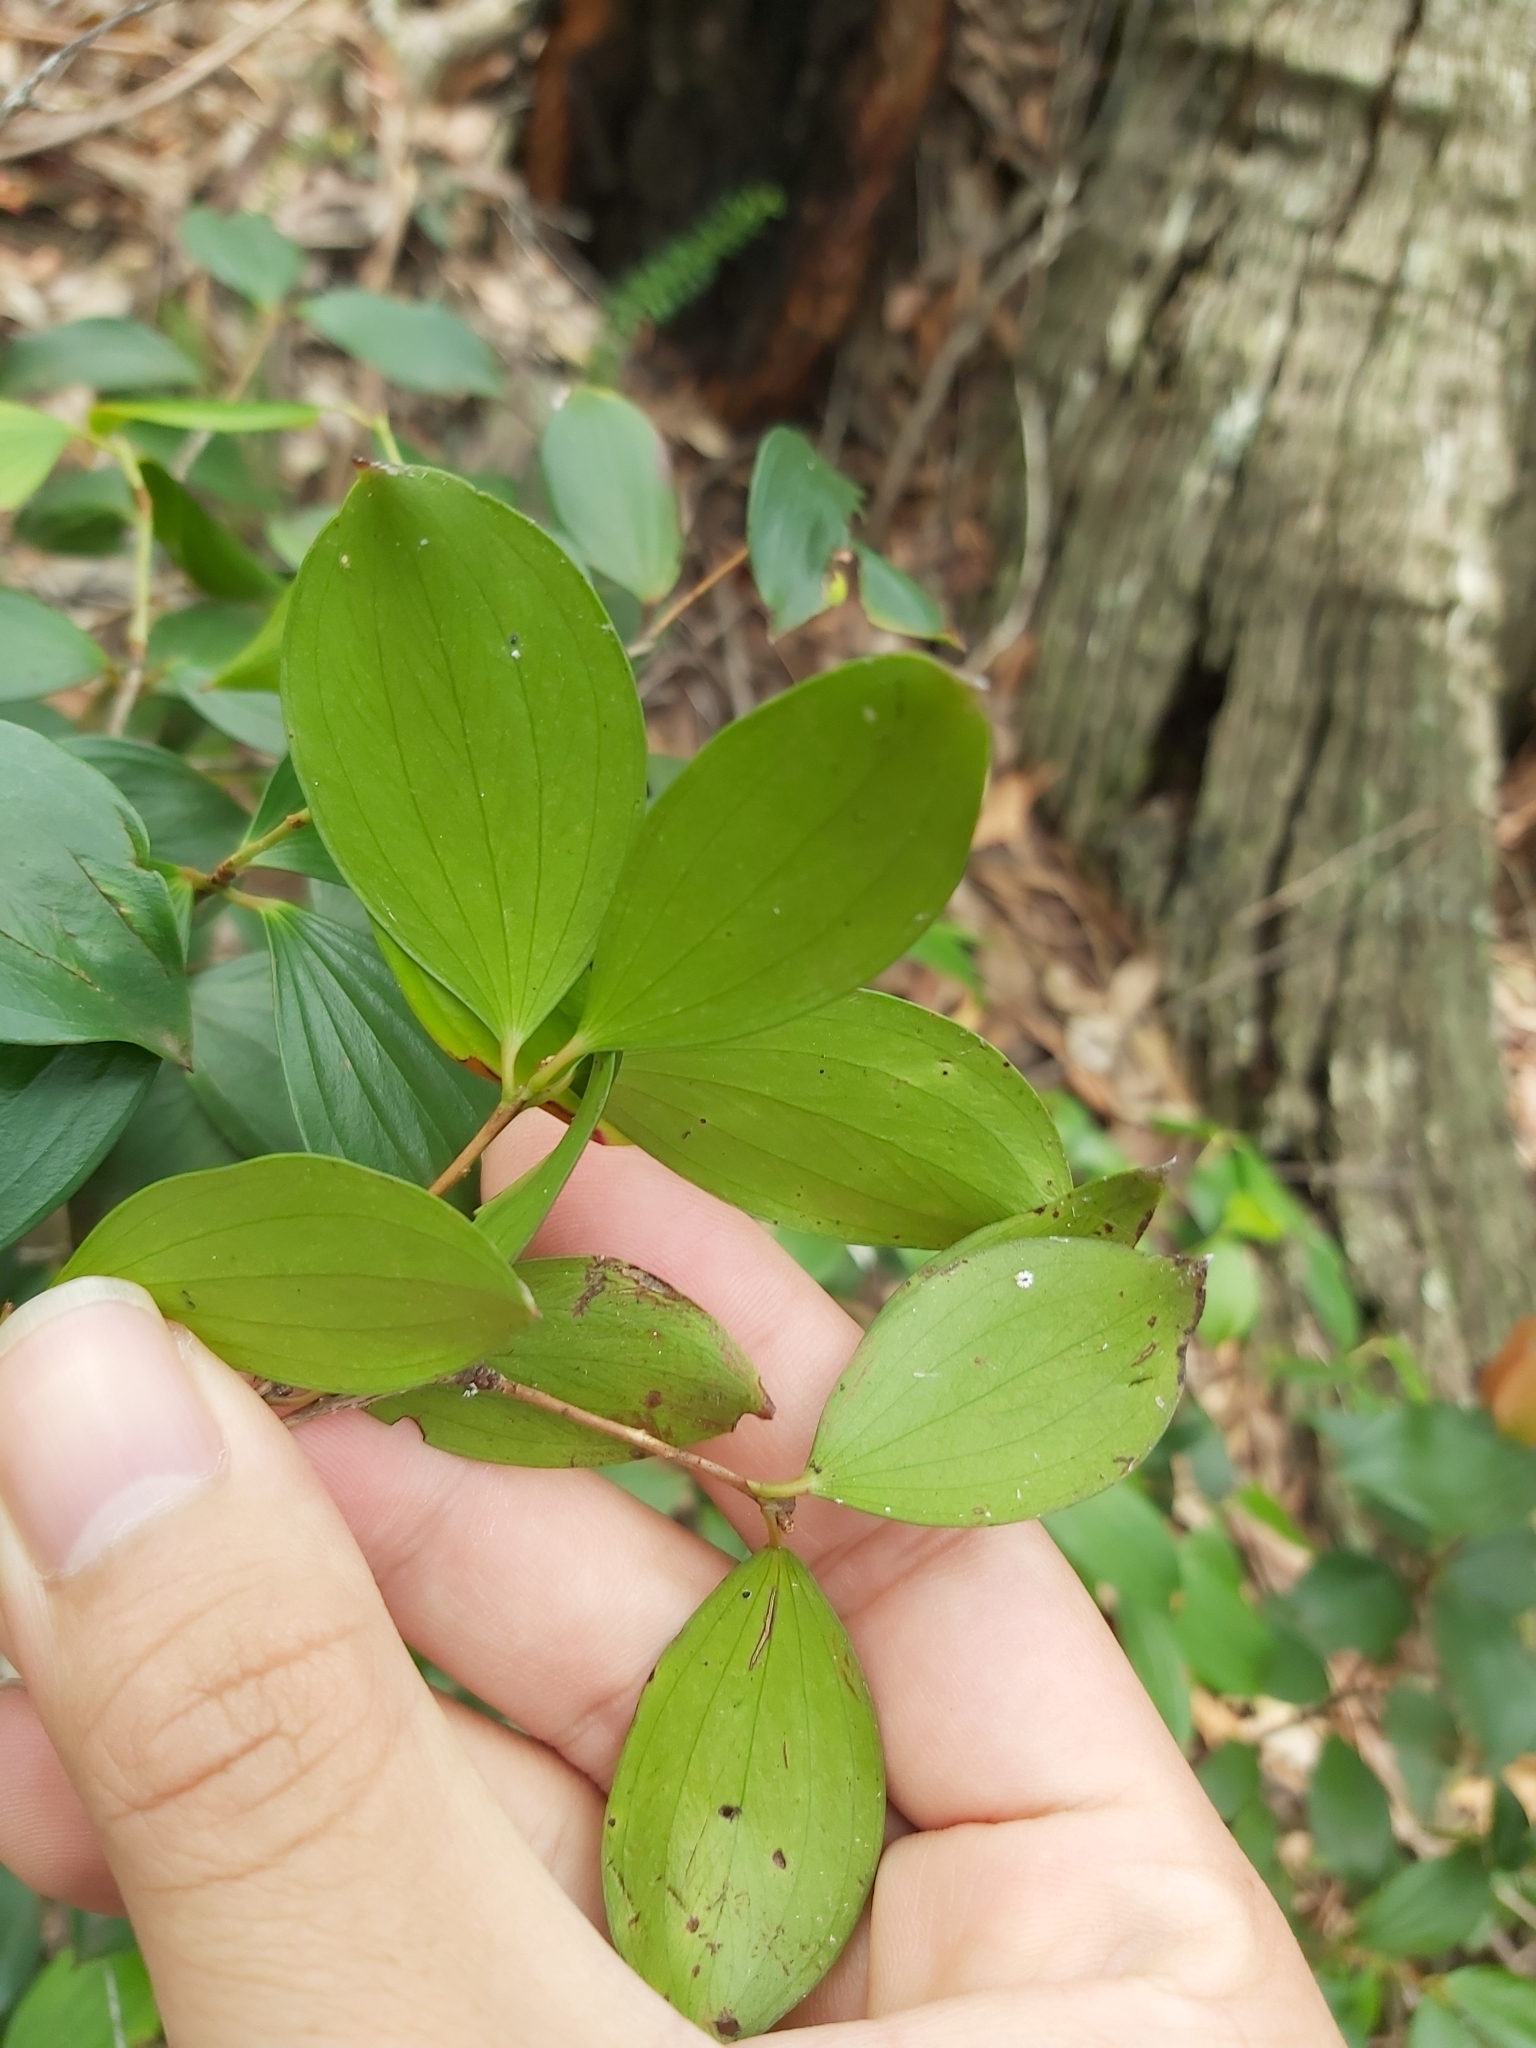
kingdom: Plantae
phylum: Tracheophyta
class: Magnoliopsida
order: Ericales
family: Ericaceae
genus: Trochocarpa
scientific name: Trochocarpa laurina
